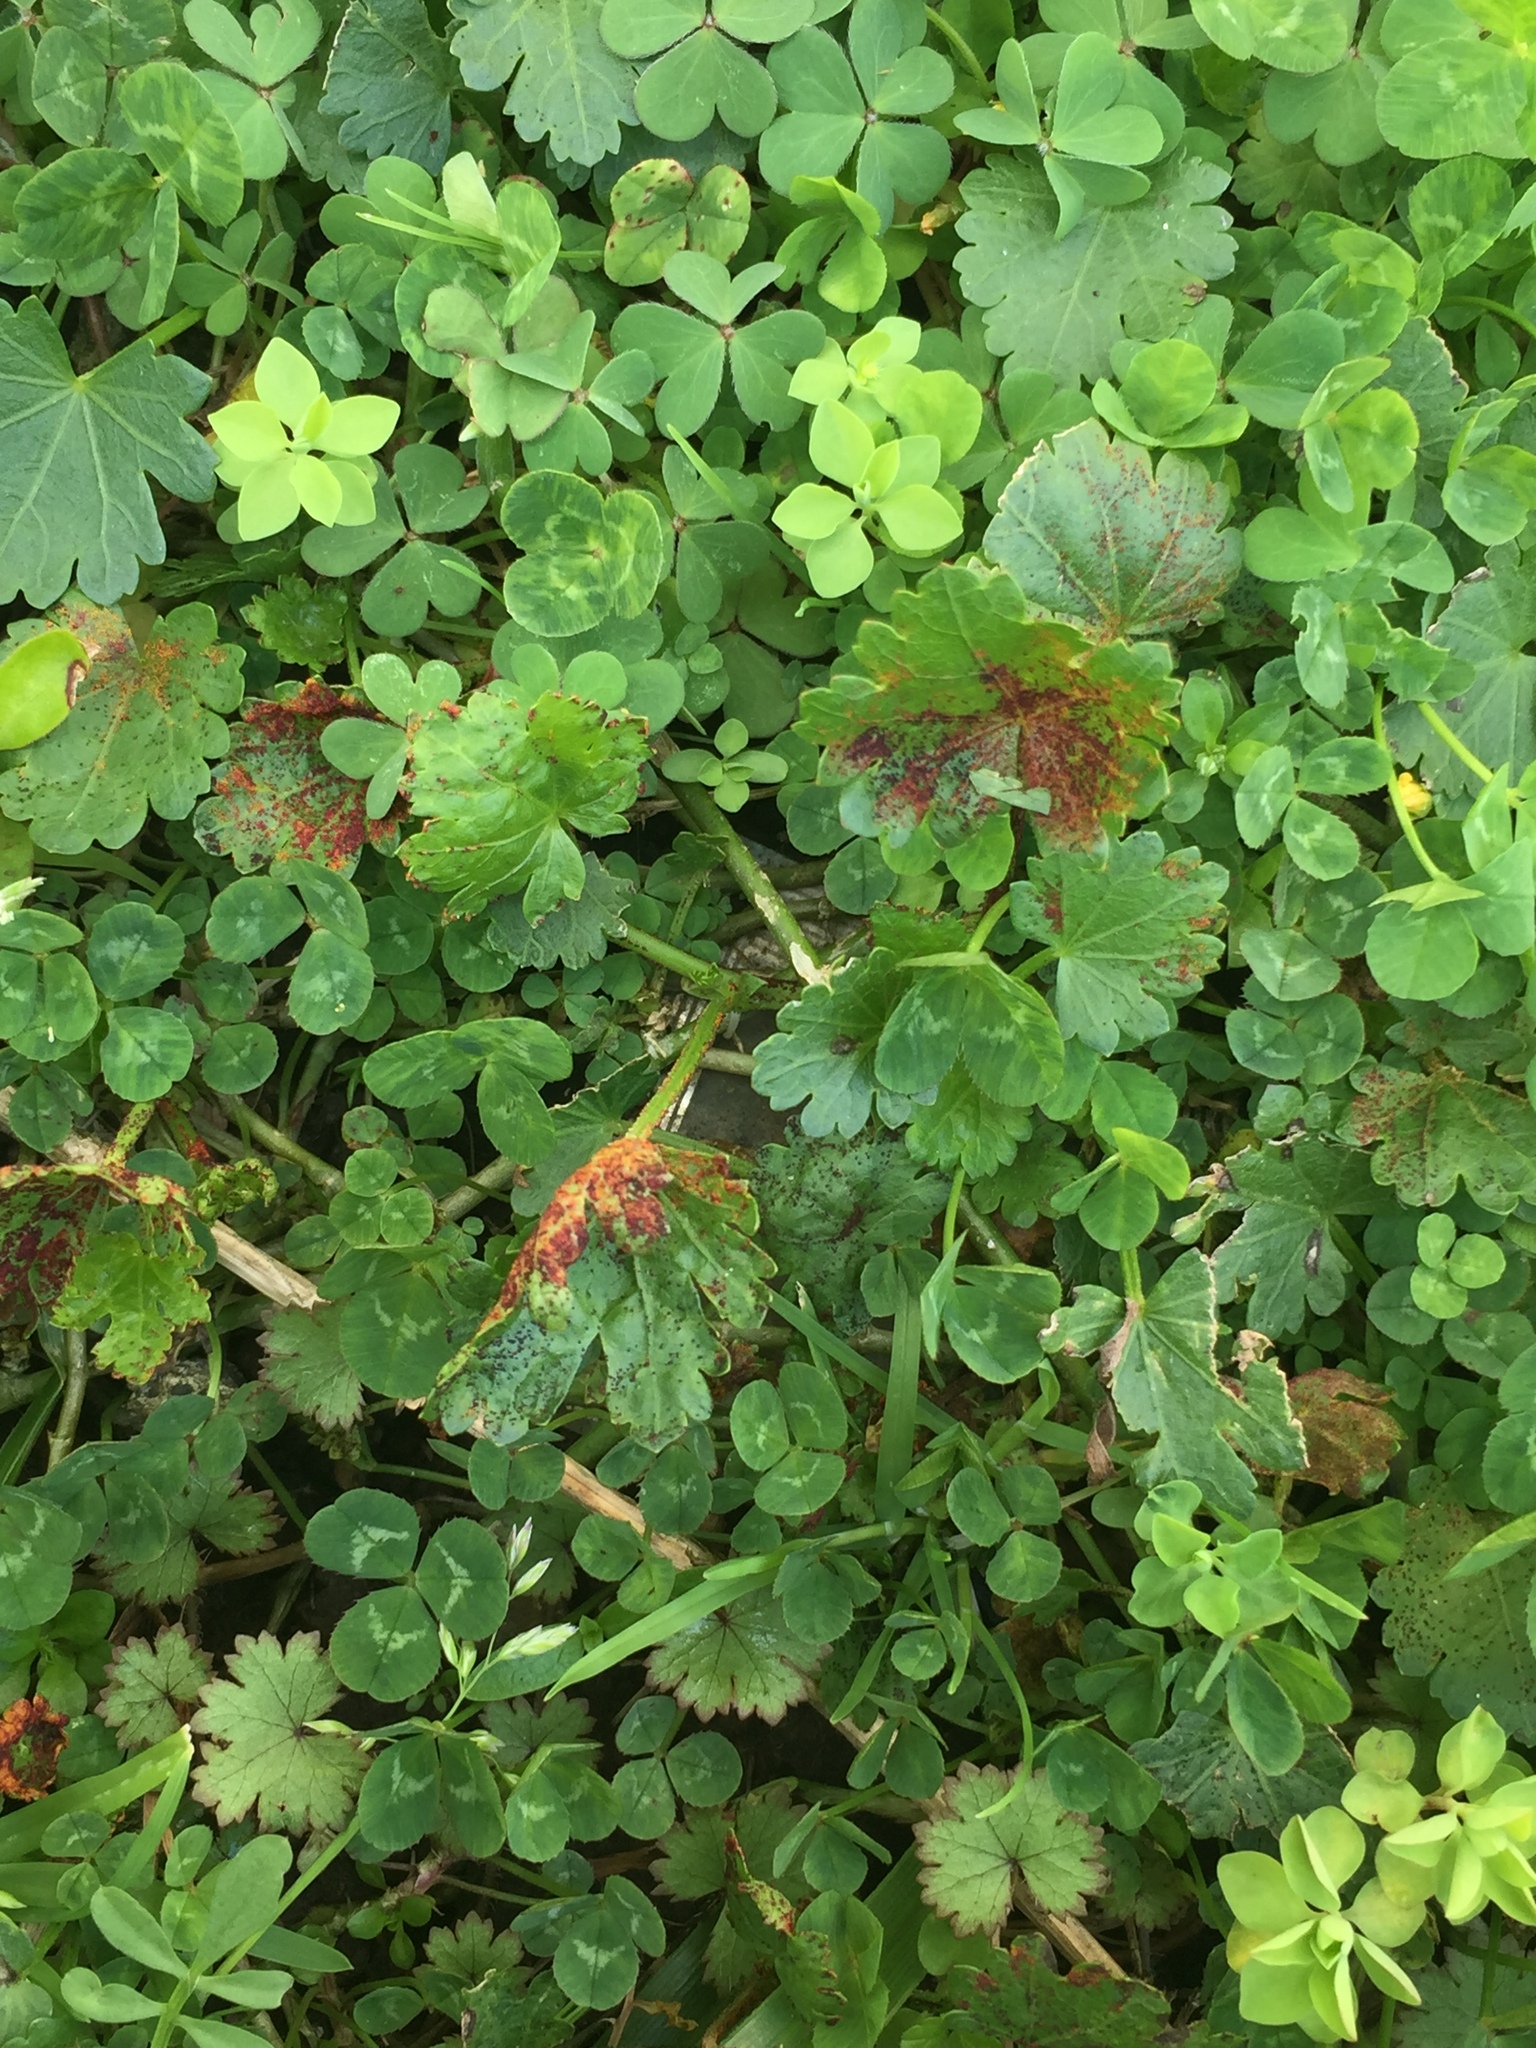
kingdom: Fungi
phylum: Chytridiomycota
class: Chytridiomycetes
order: Chytridiales
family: Synchytriaceae
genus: Synchytrium
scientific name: Synchytrium australe
